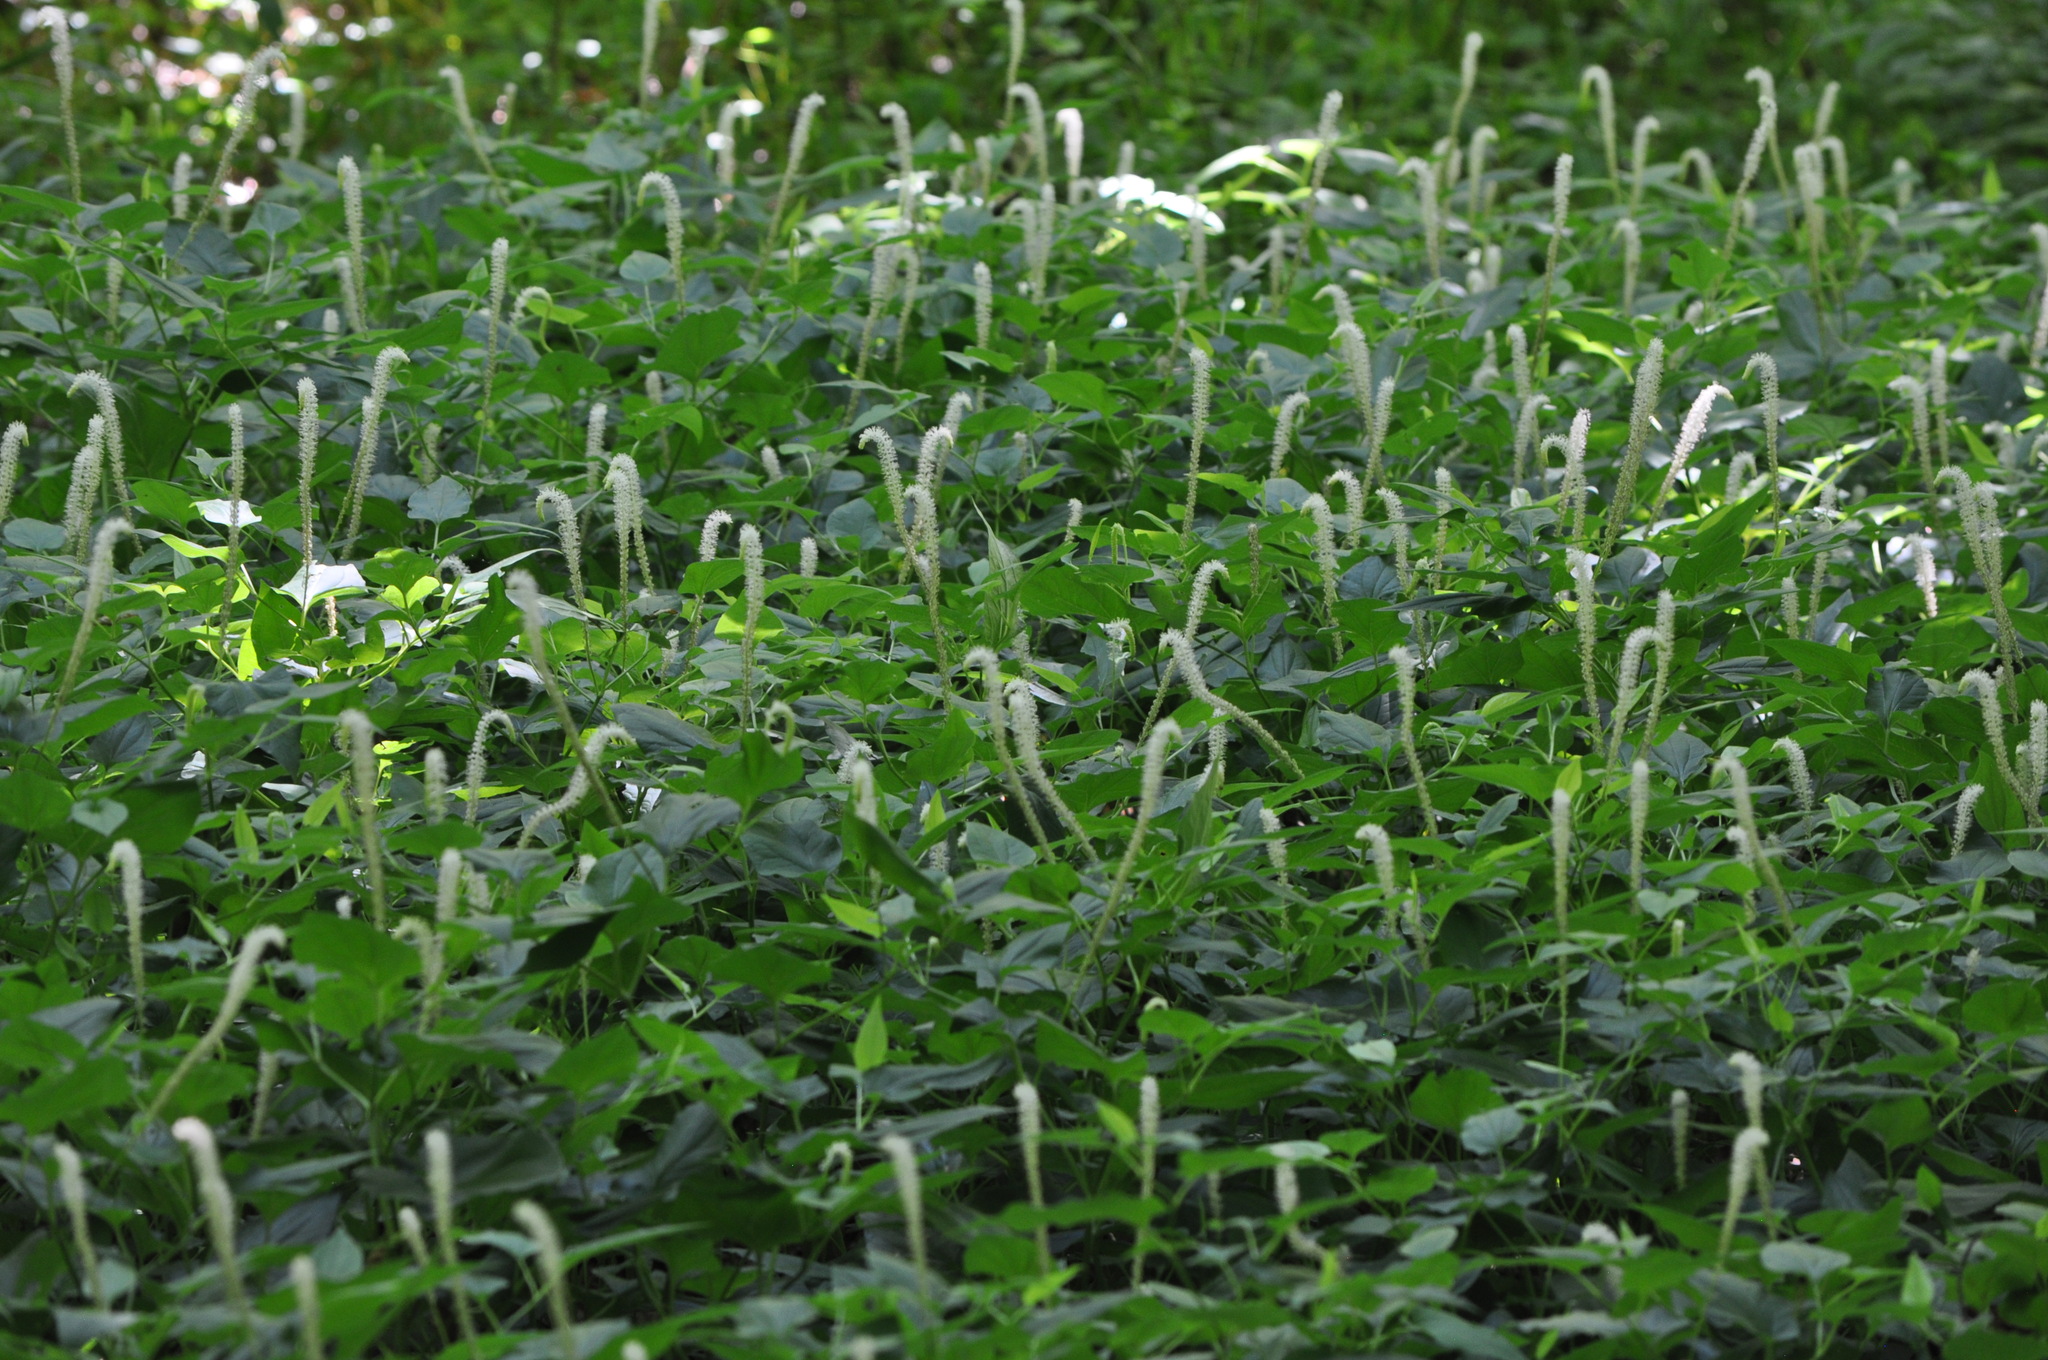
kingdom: Plantae
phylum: Tracheophyta
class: Magnoliopsida
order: Piperales
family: Saururaceae
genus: Saururus
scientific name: Saururus cernuus
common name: Lizard's-tail
